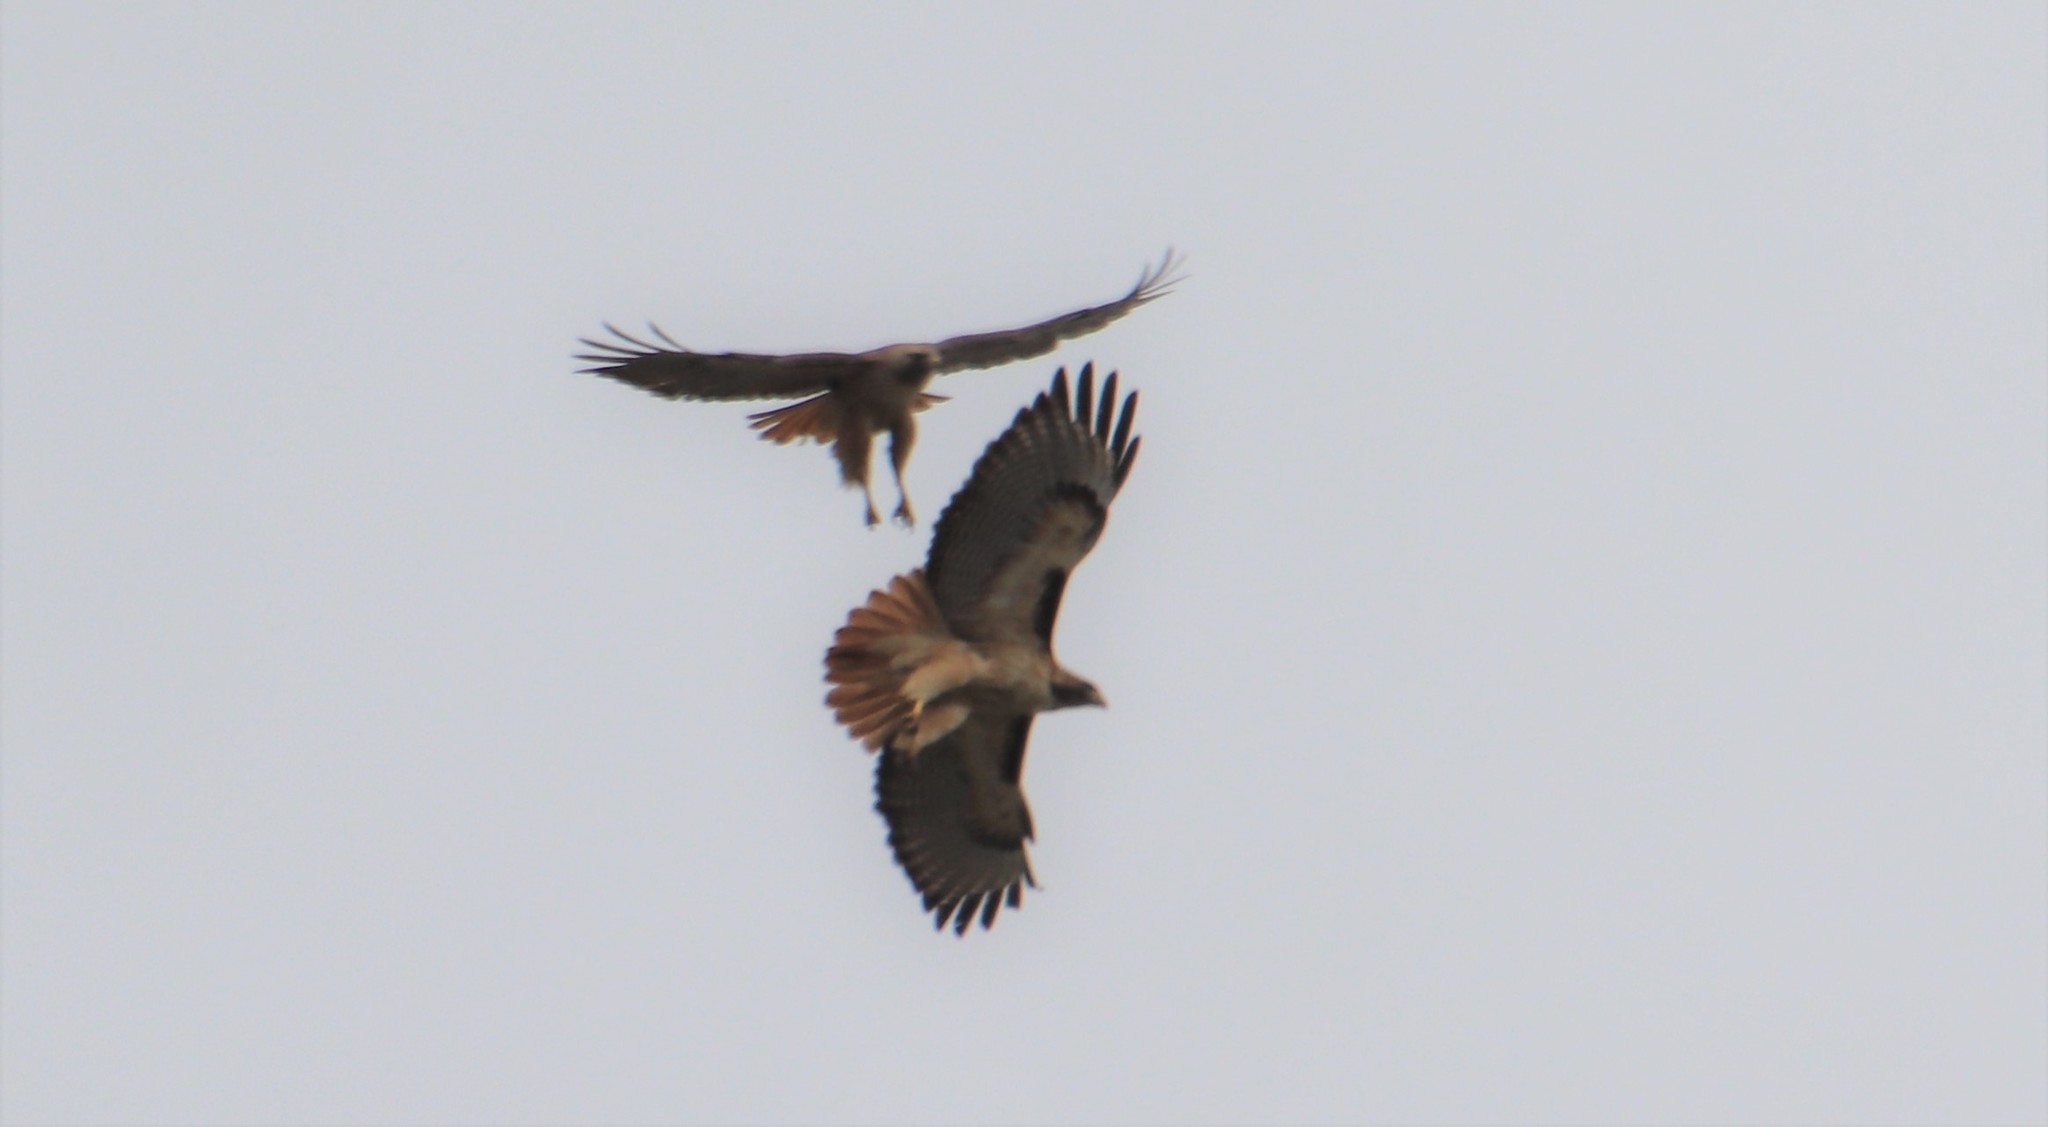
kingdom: Animalia
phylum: Chordata
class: Aves
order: Accipitriformes
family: Accipitridae
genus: Buteo
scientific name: Buteo jamaicensis
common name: Red-tailed hawk
